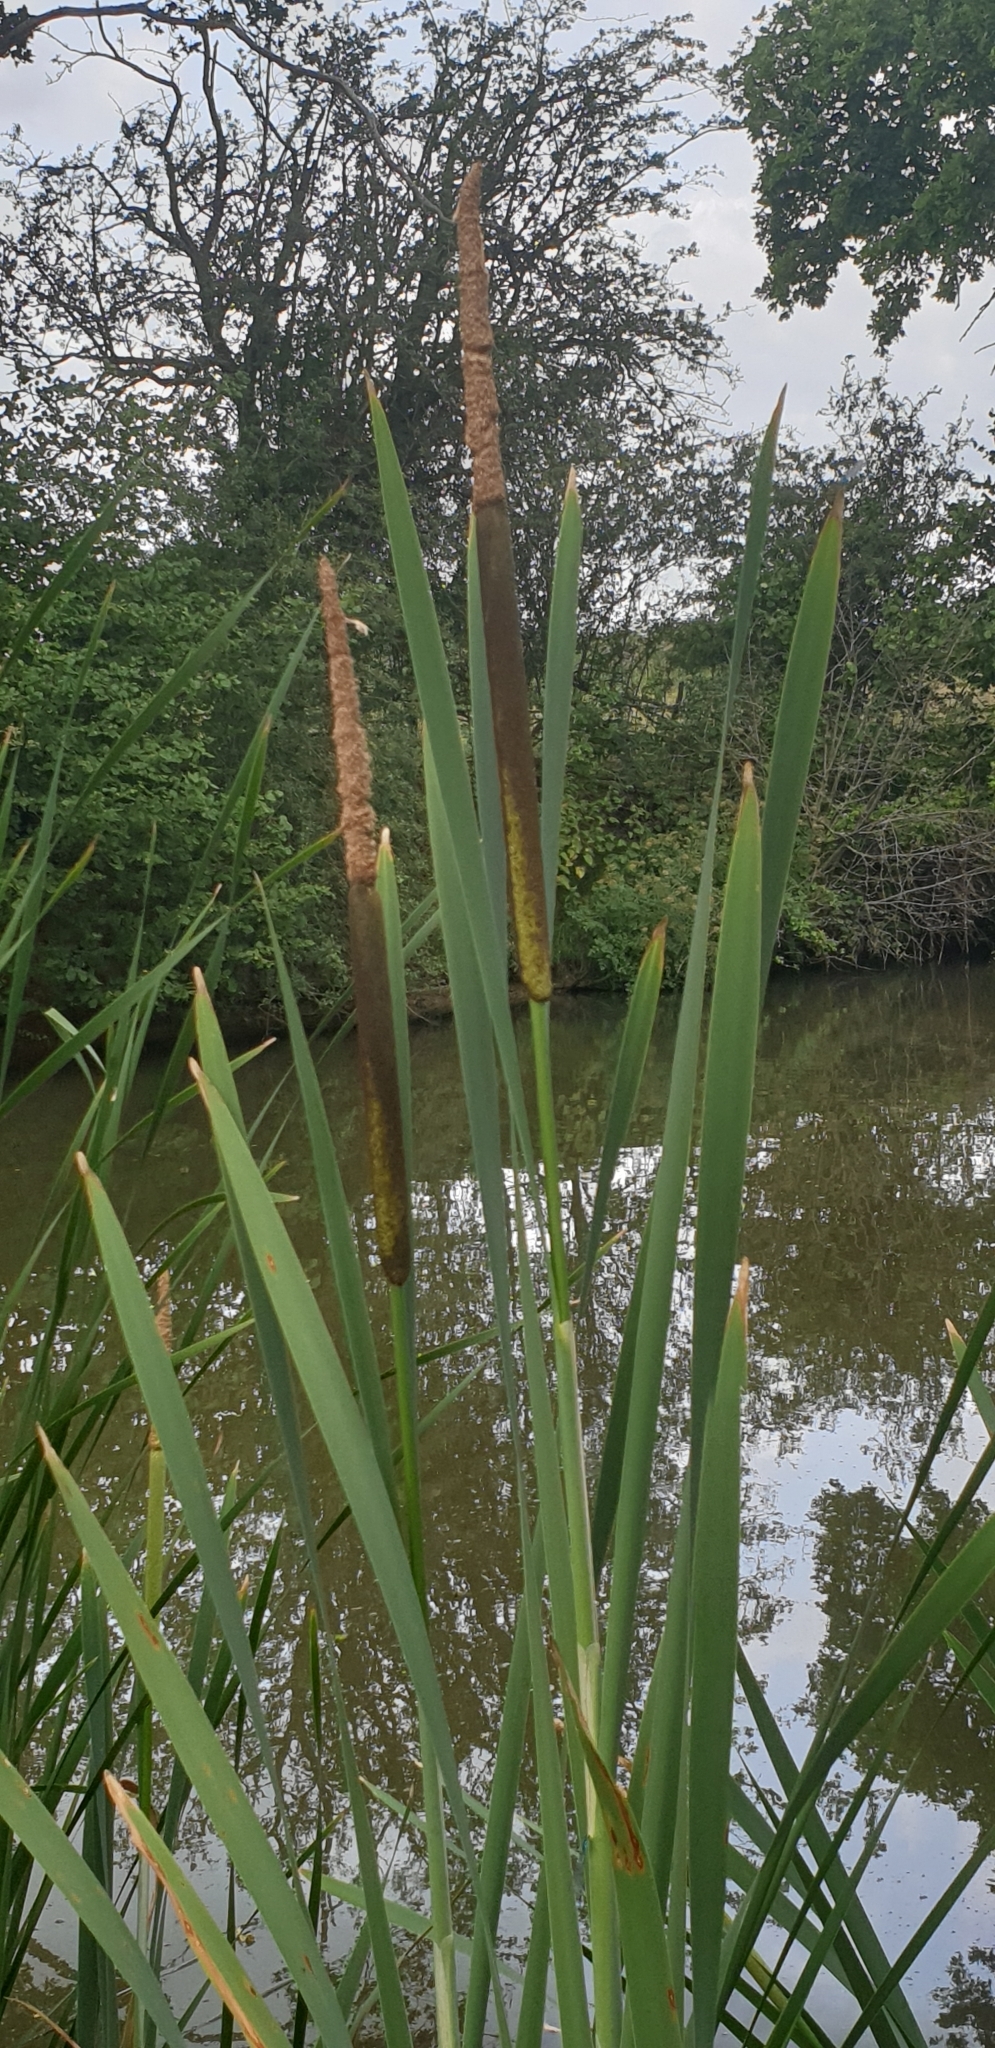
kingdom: Plantae
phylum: Tracheophyta
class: Liliopsida
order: Poales
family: Typhaceae
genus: Typha
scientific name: Typha latifolia
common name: Broadleaf cattail
